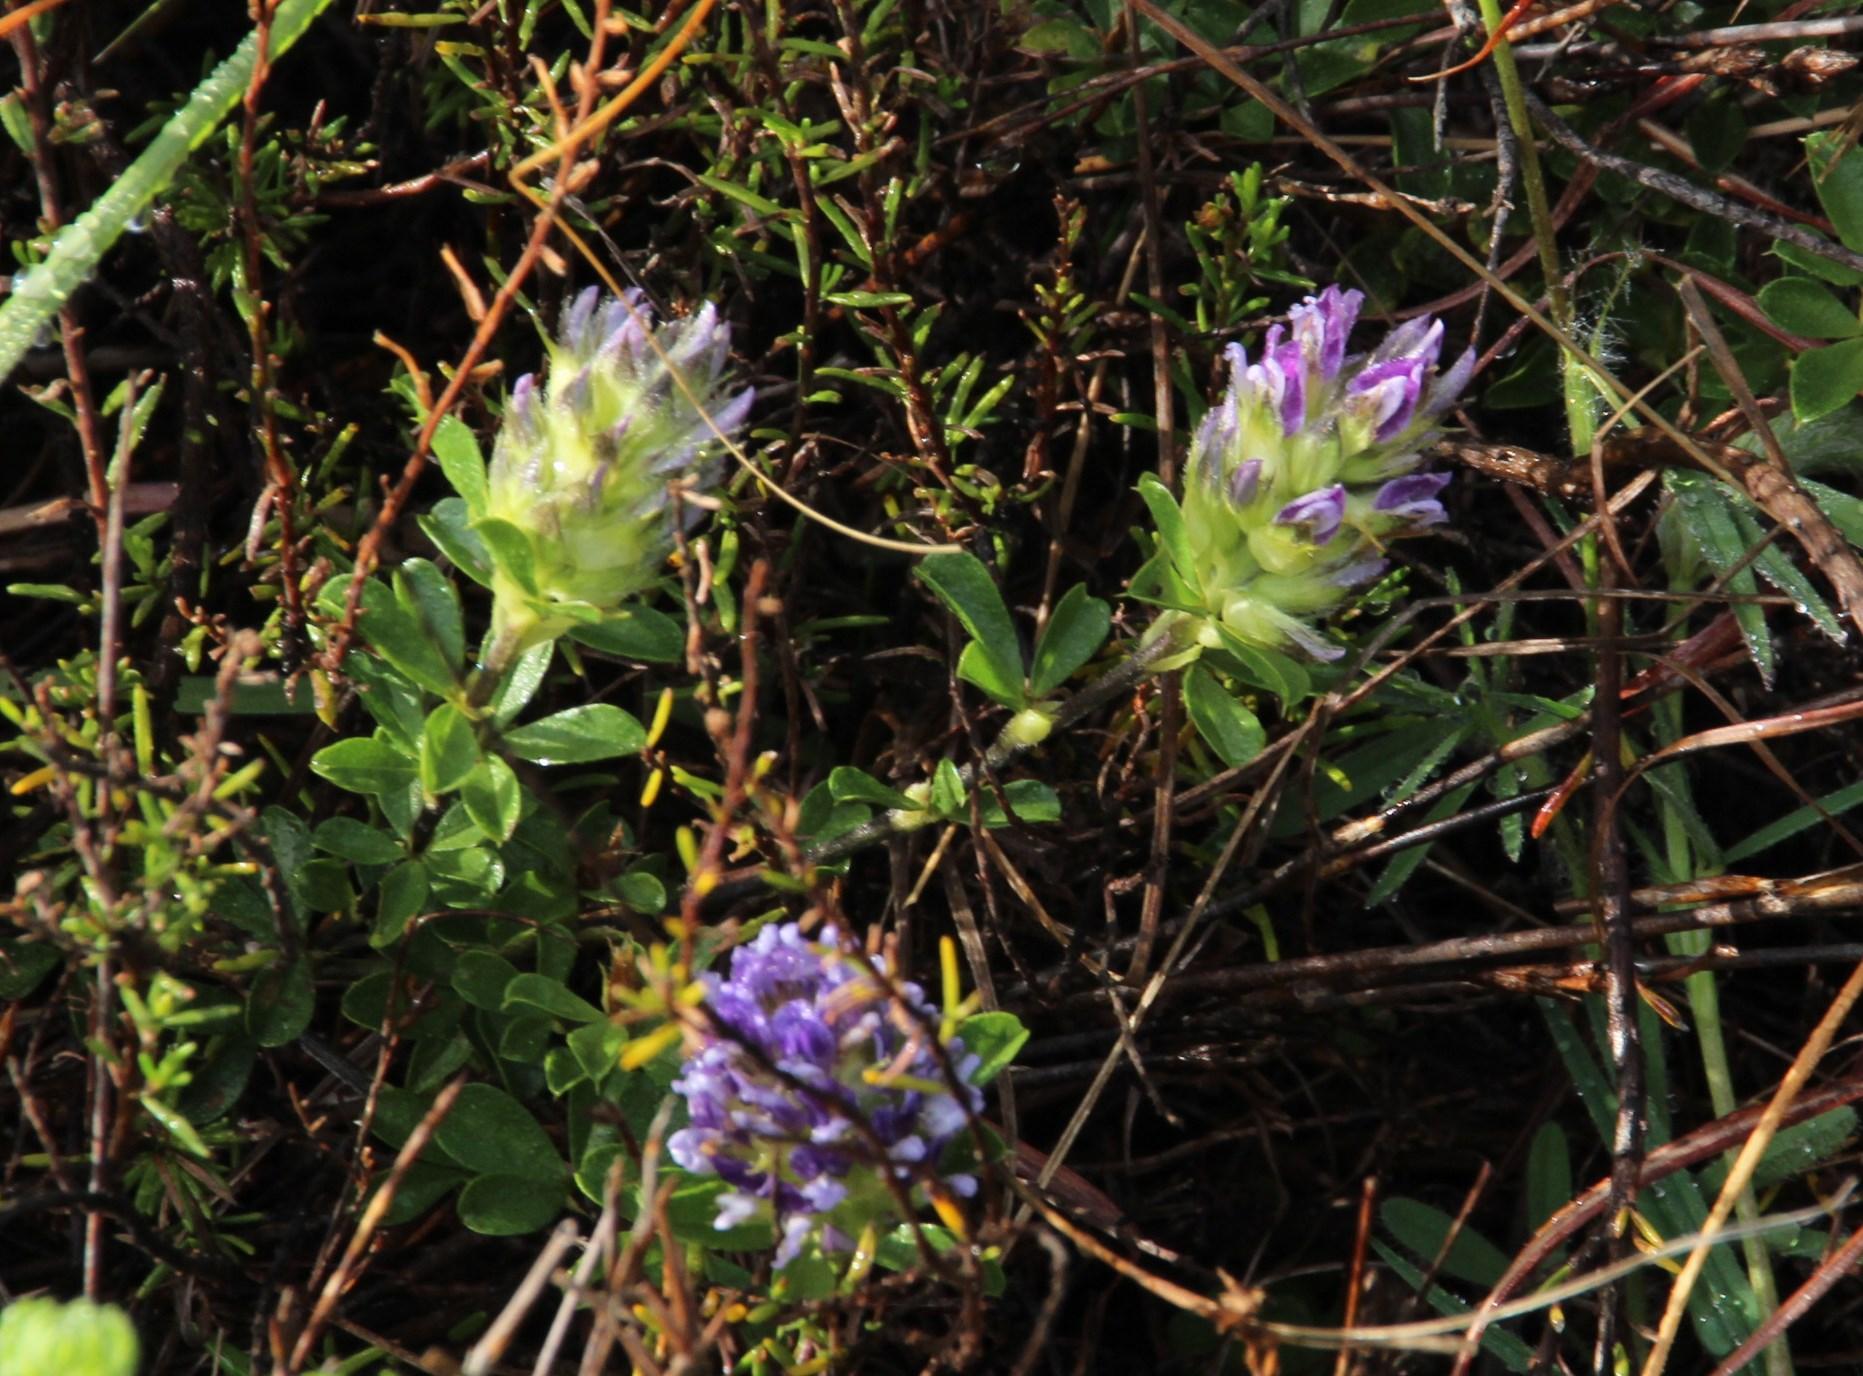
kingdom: Plantae
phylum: Tracheophyta
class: Magnoliopsida
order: Fabales
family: Fabaceae
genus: Psoralea
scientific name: Psoralea fruticans
